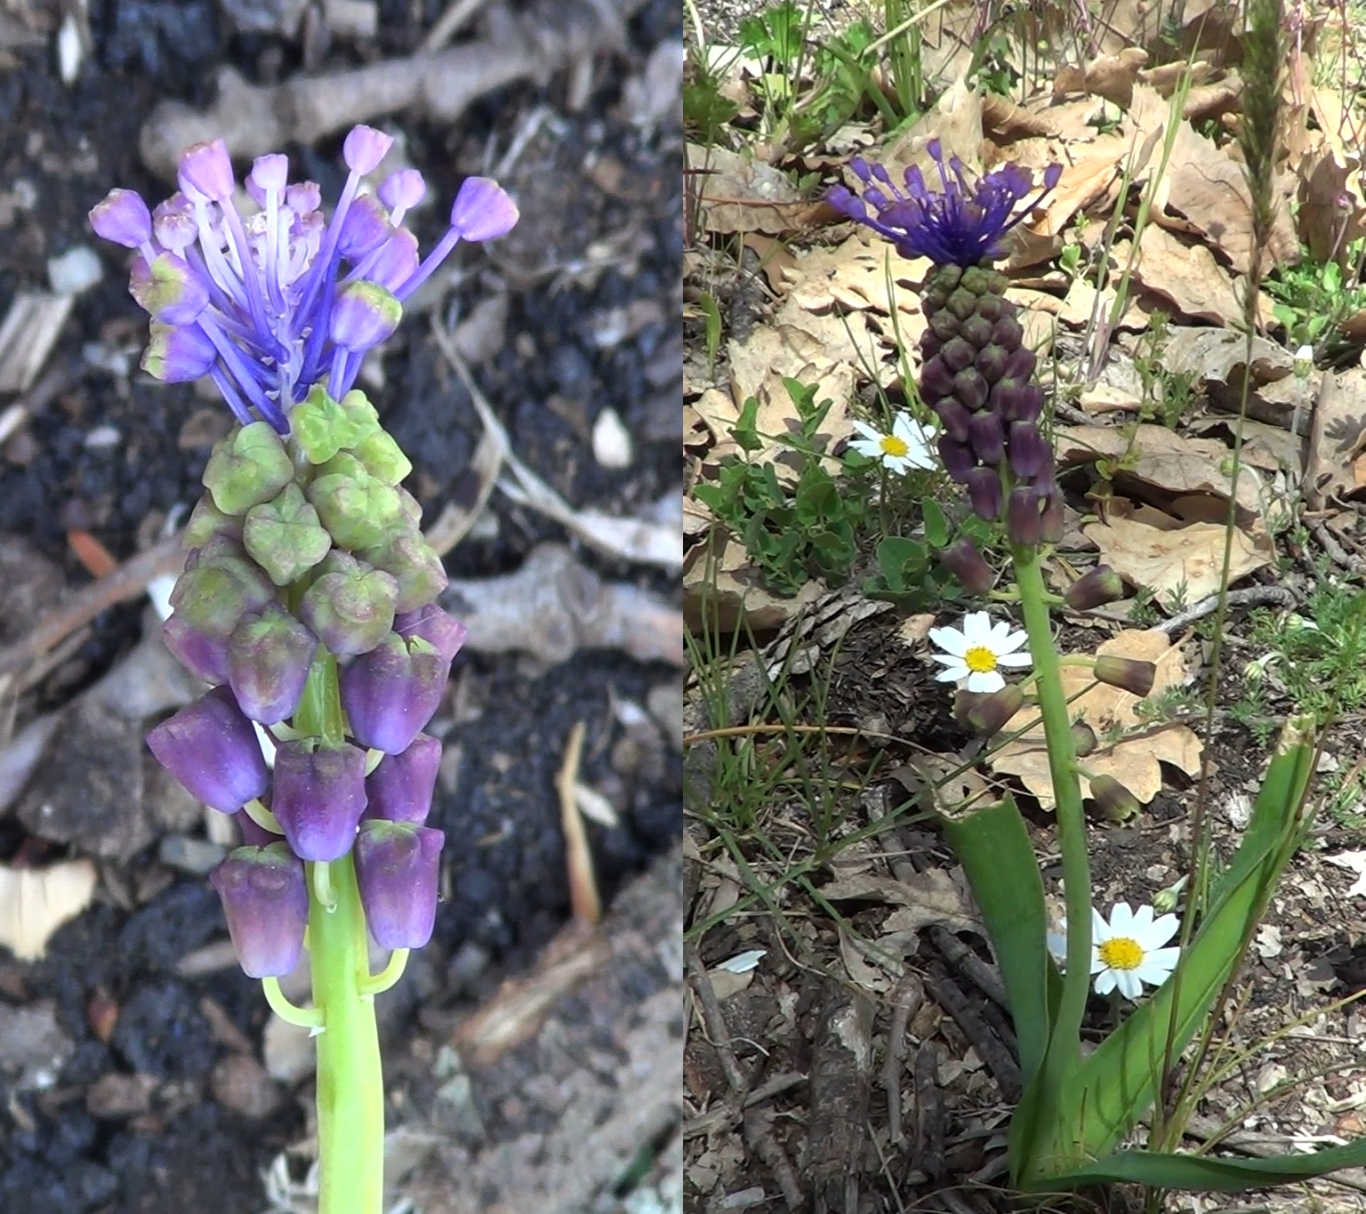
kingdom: Plantae
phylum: Tracheophyta
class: Liliopsida
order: Asparagales
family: Asparagaceae
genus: Muscari
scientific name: Muscari comosum
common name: Tassel hyacinth
